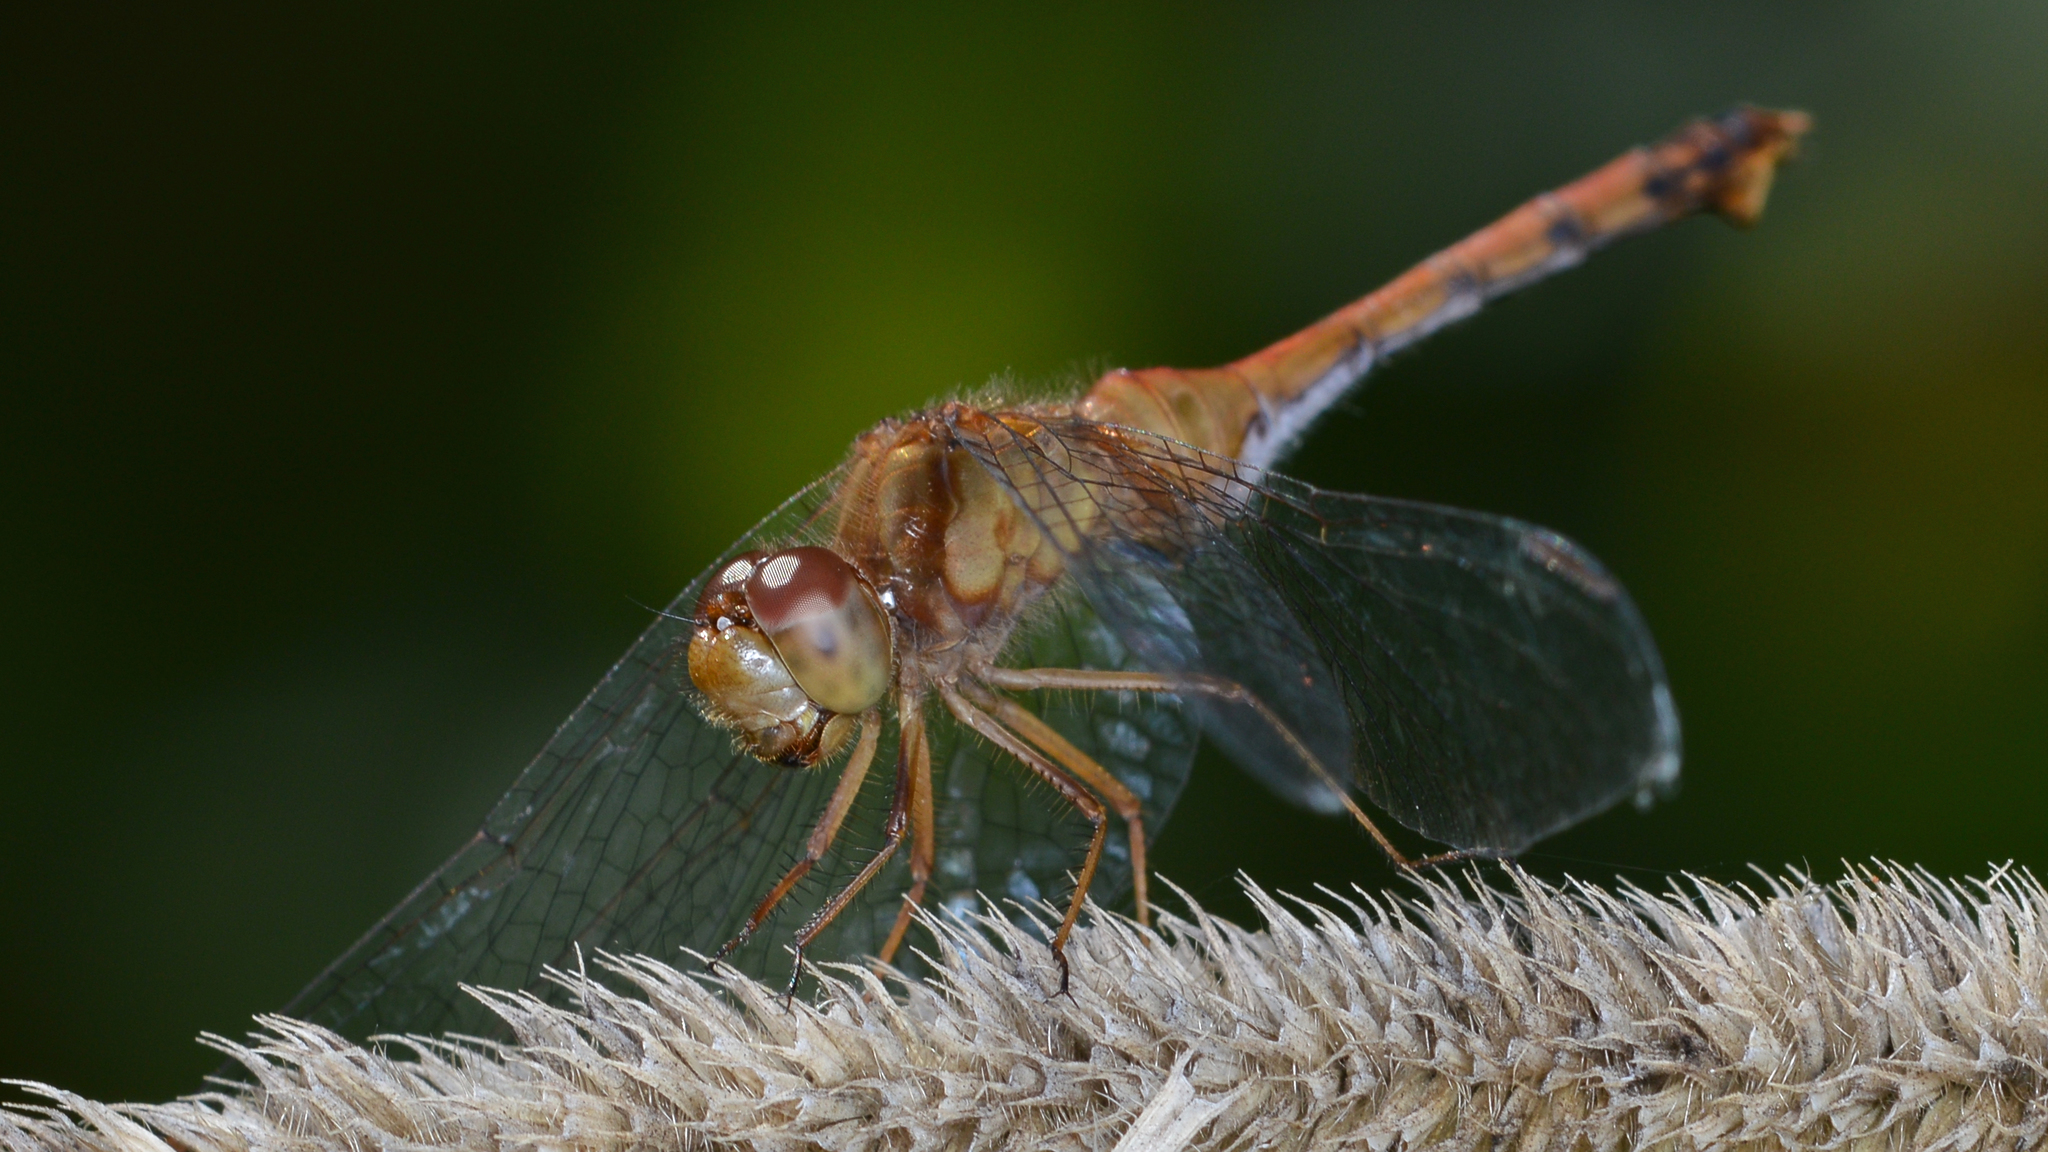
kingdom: Animalia
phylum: Arthropoda
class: Insecta
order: Odonata
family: Libellulidae
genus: Sympetrum
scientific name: Sympetrum vicinum
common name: Autumn meadowhawk
